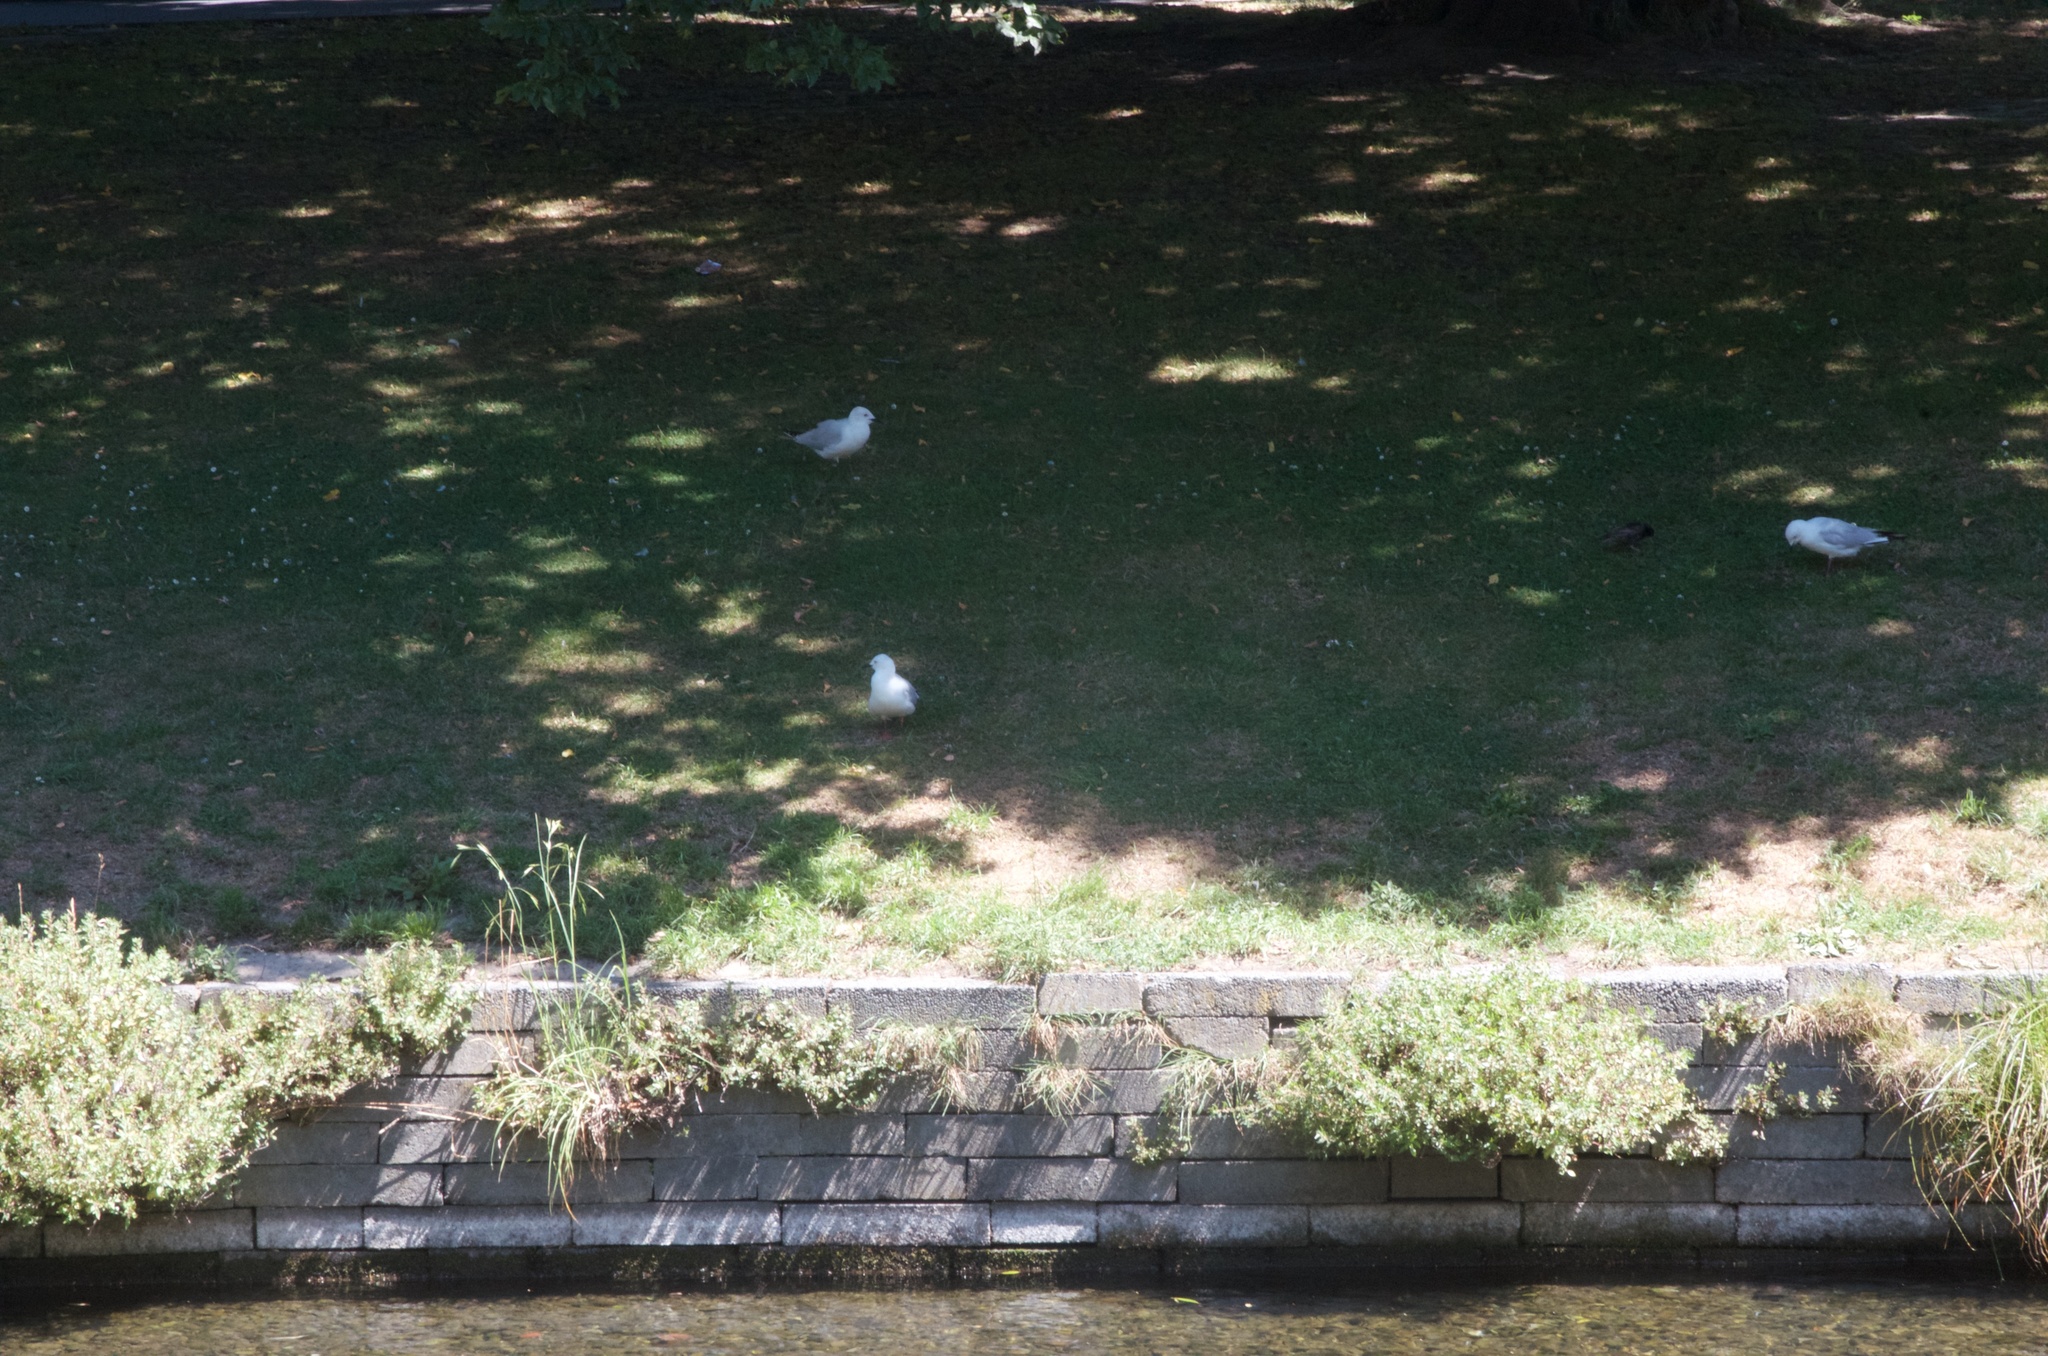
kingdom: Animalia
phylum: Chordata
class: Aves
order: Charadriiformes
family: Laridae
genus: Chroicocephalus
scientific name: Chroicocephalus novaehollandiae
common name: Silver gull
